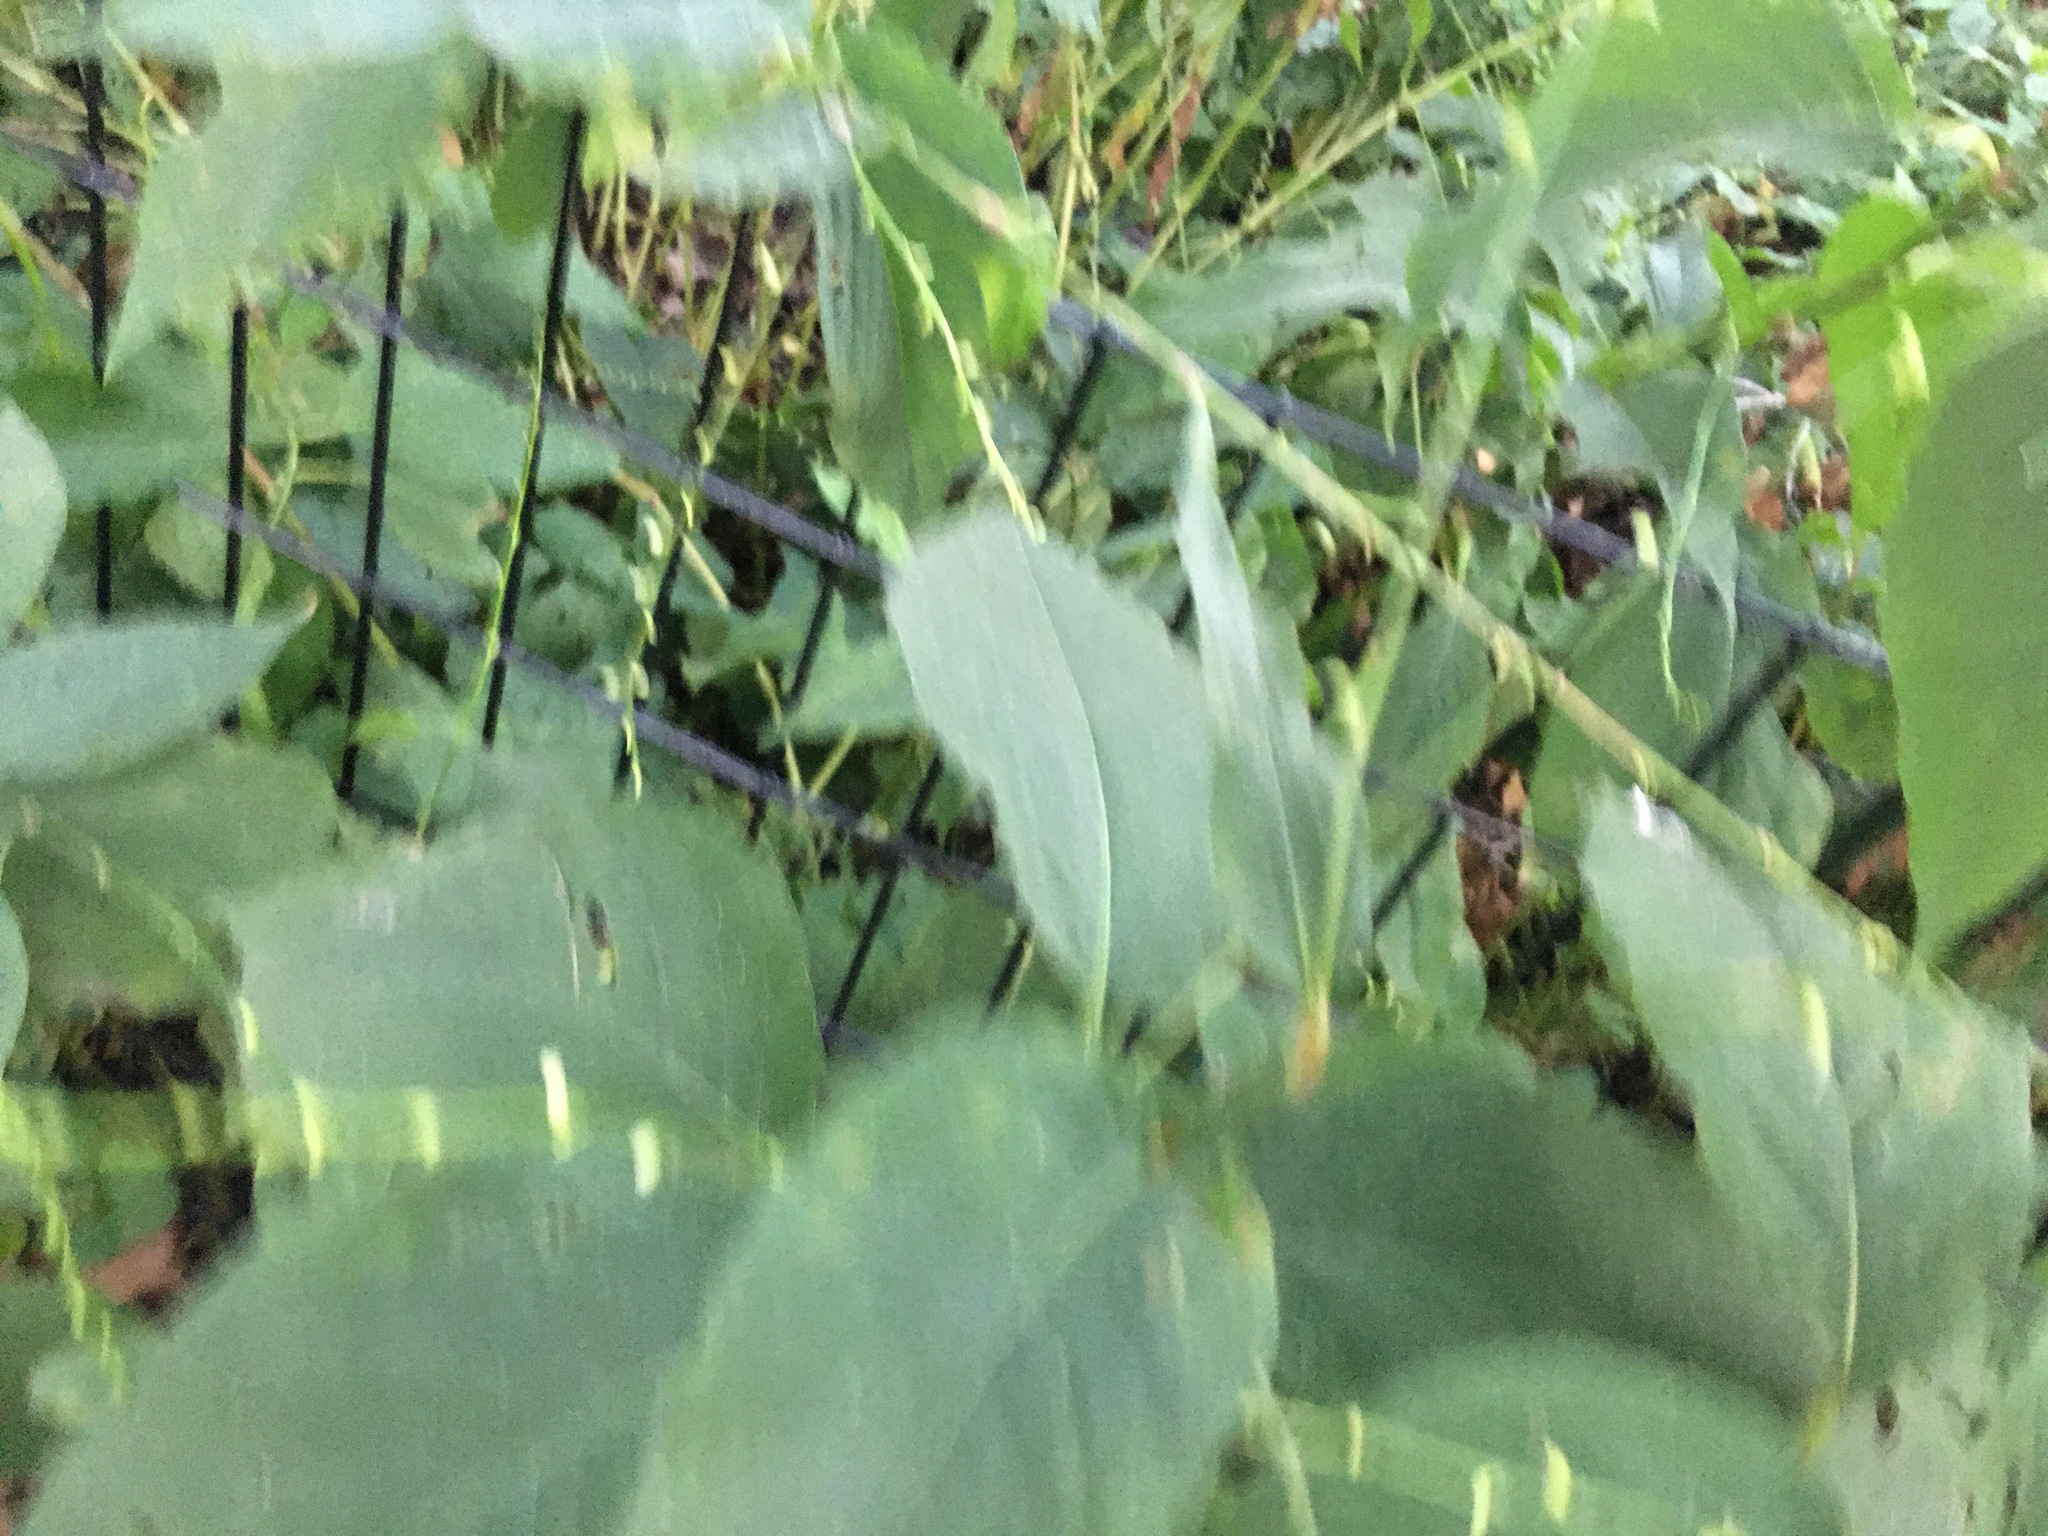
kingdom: Plantae
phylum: Tracheophyta
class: Magnoliopsida
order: Caryophyllales
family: Polygonaceae
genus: Persicaria
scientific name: Persicaria virginiana
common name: Jumpseed
